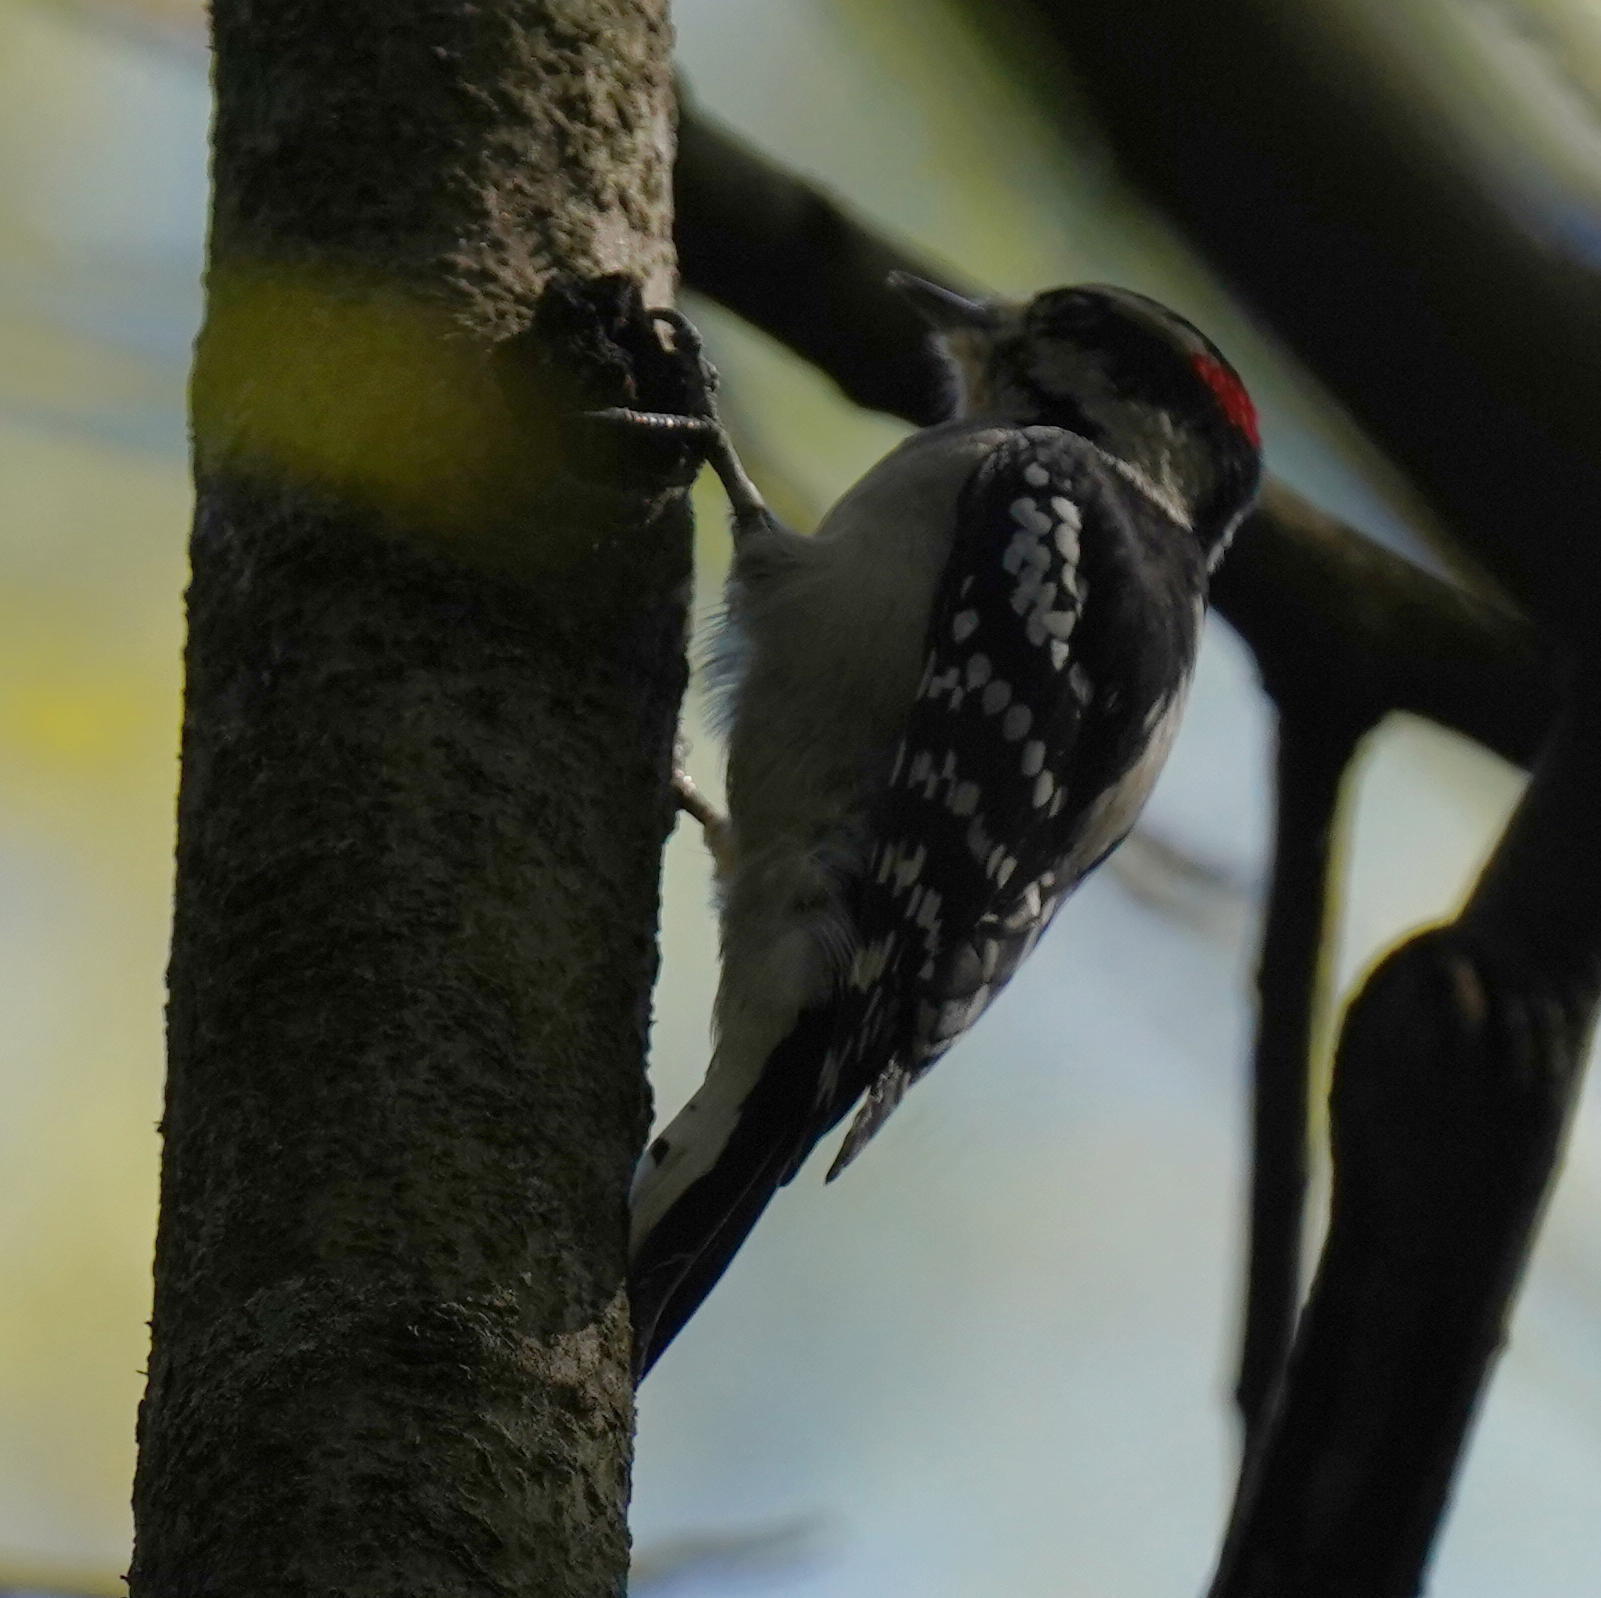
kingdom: Animalia
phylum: Chordata
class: Aves
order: Piciformes
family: Picidae
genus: Dryobates
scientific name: Dryobates pubescens
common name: Downy woodpecker
